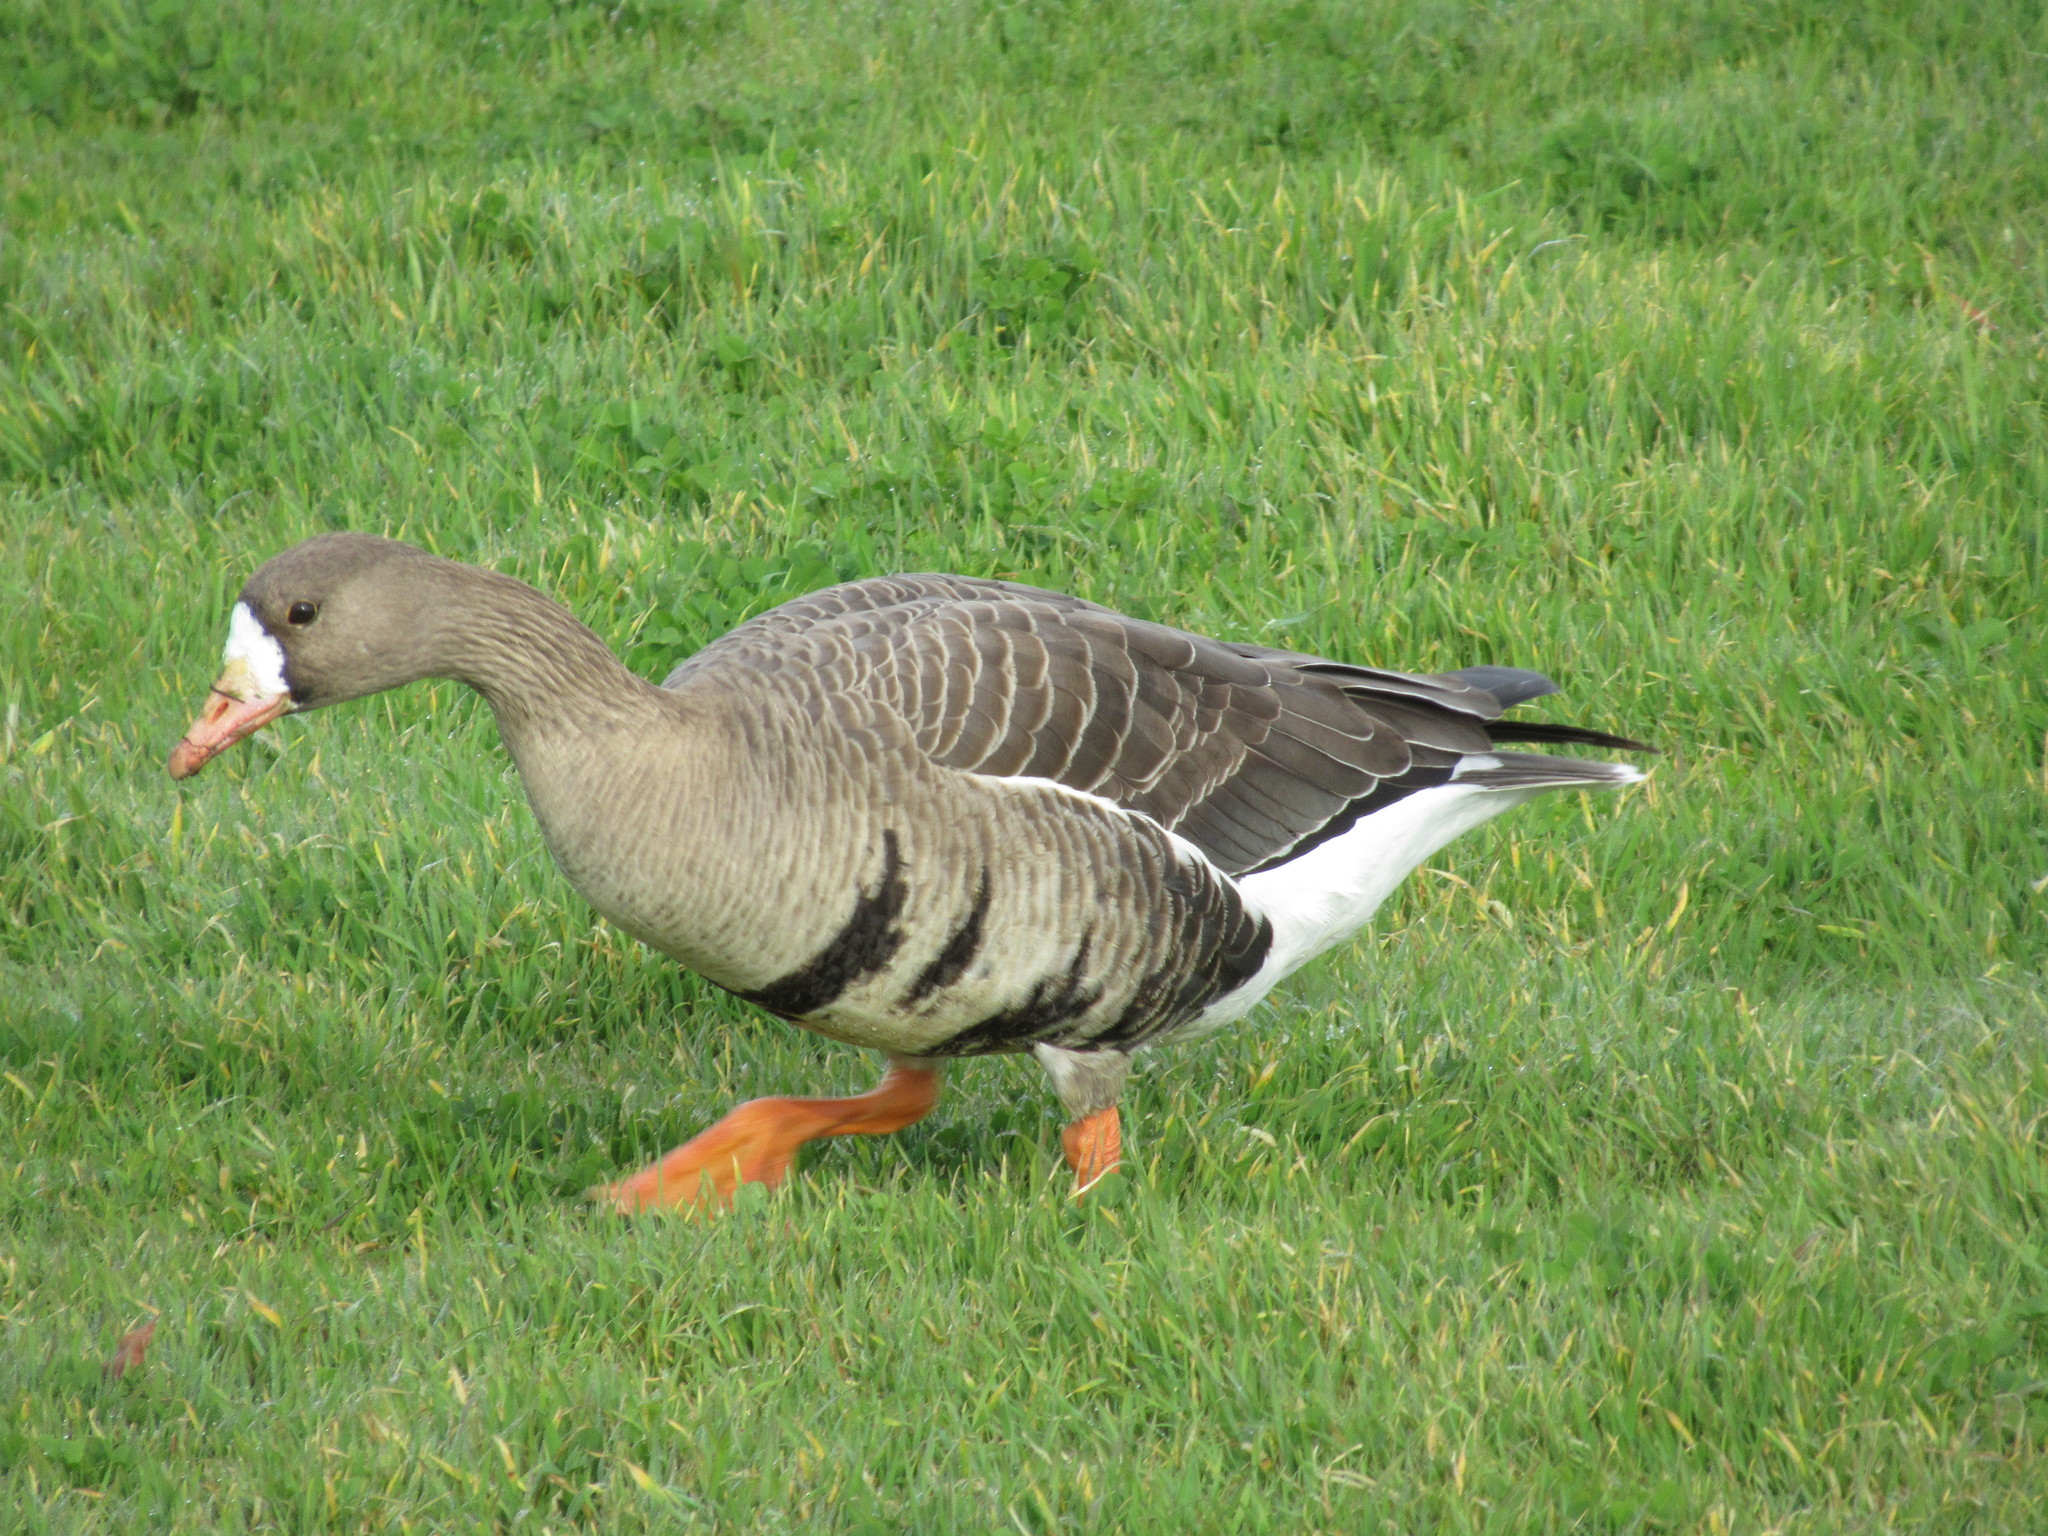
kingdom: Animalia
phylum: Chordata
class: Aves
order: Anseriformes
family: Anatidae
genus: Anser
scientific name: Anser albifrons
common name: Greater white-fronted goose
